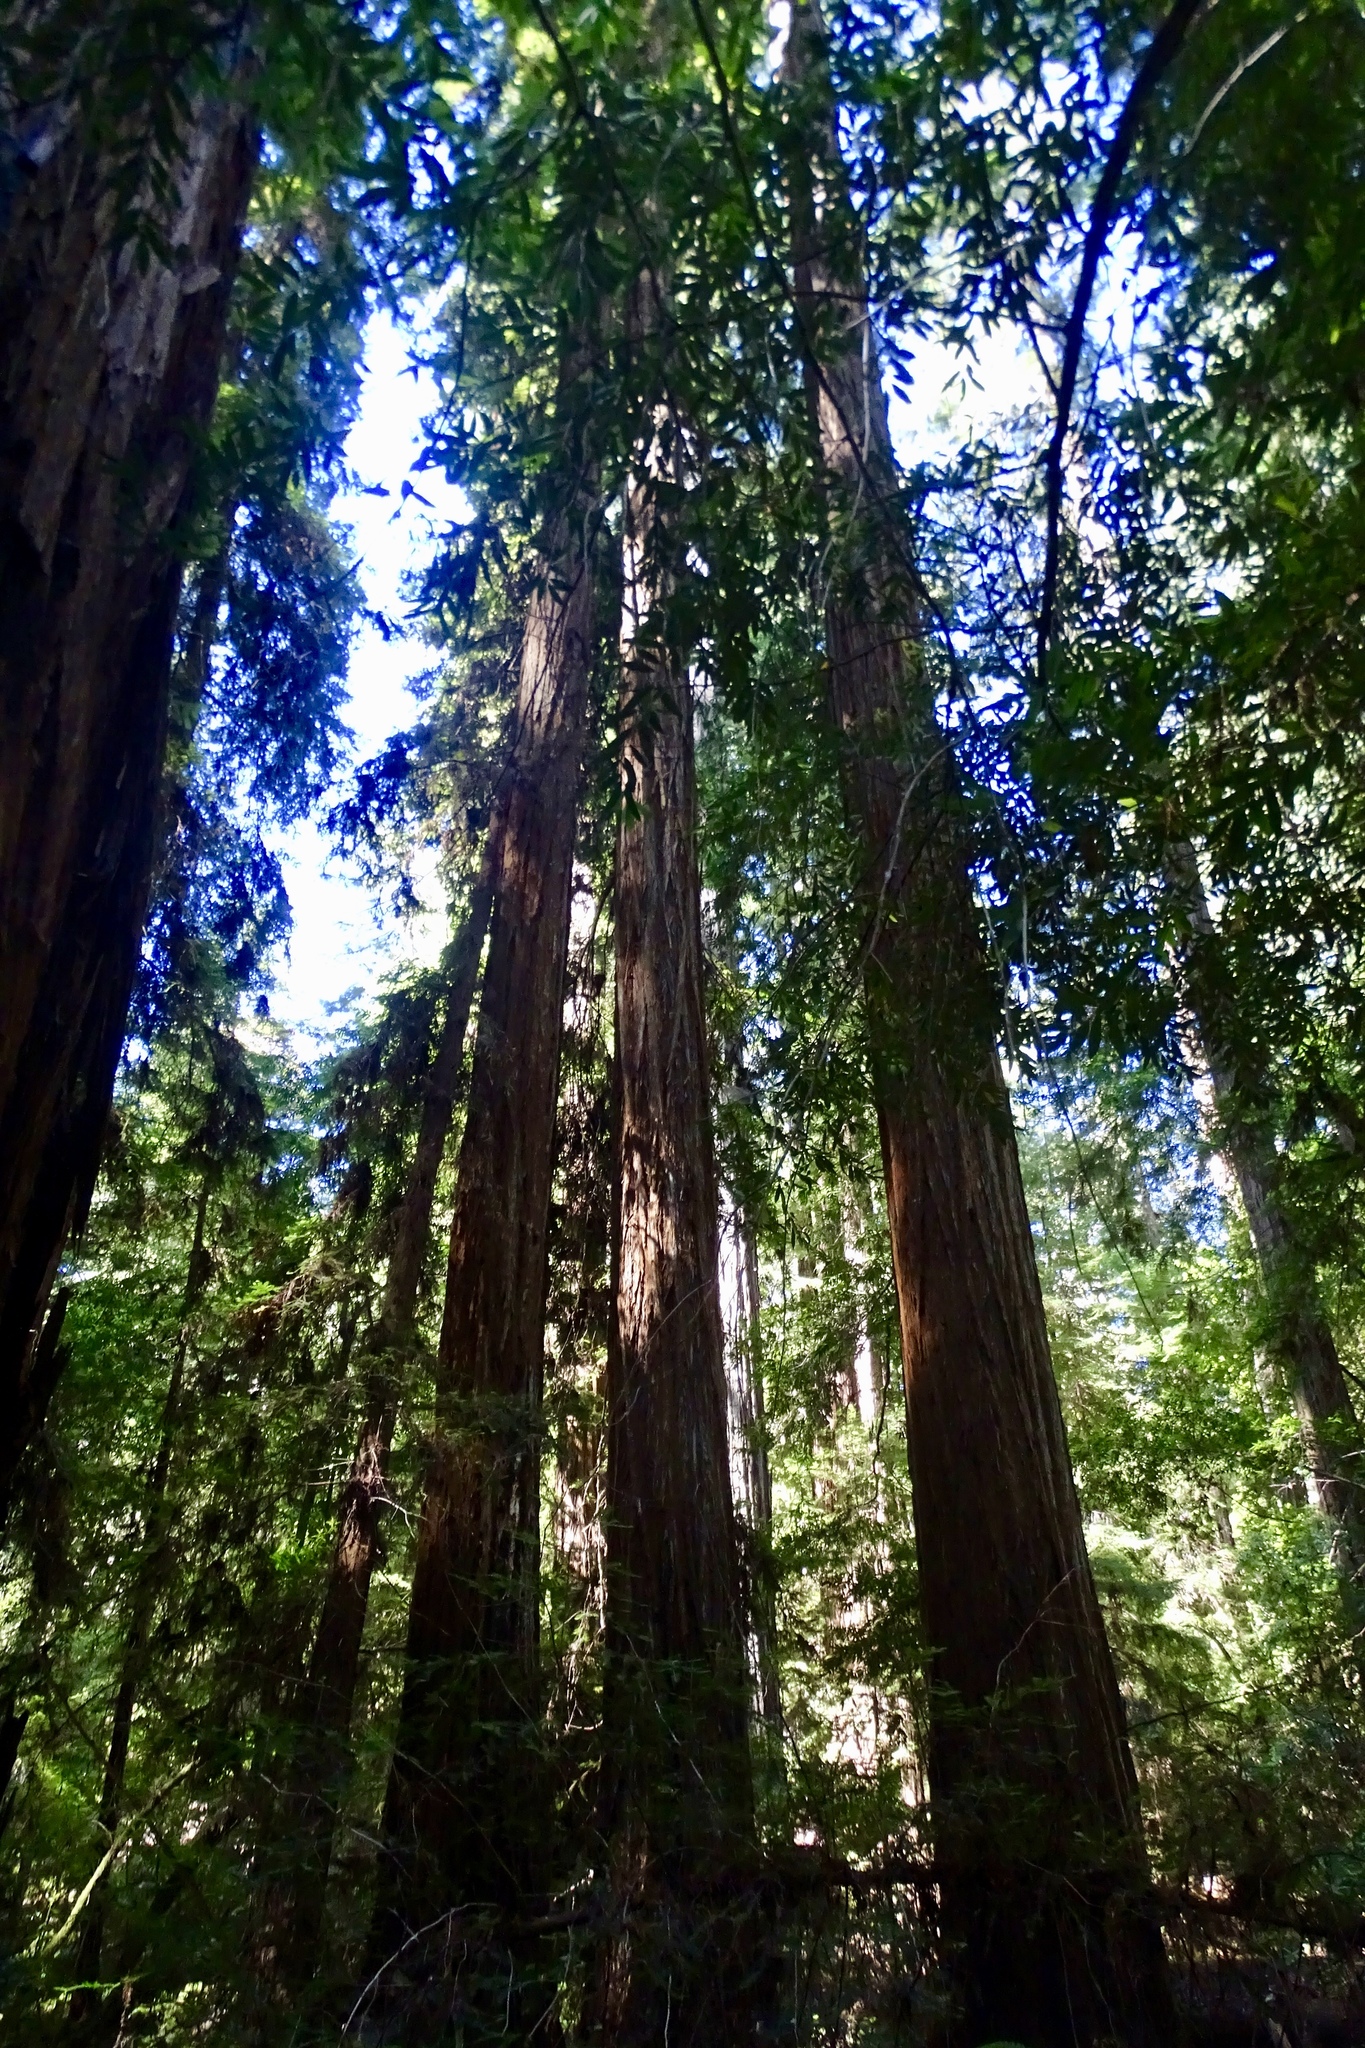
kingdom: Plantae
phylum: Tracheophyta
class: Pinopsida
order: Pinales
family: Cupressaceae
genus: Sequoia
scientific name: Sequoia sempervirens
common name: Coast redwood
